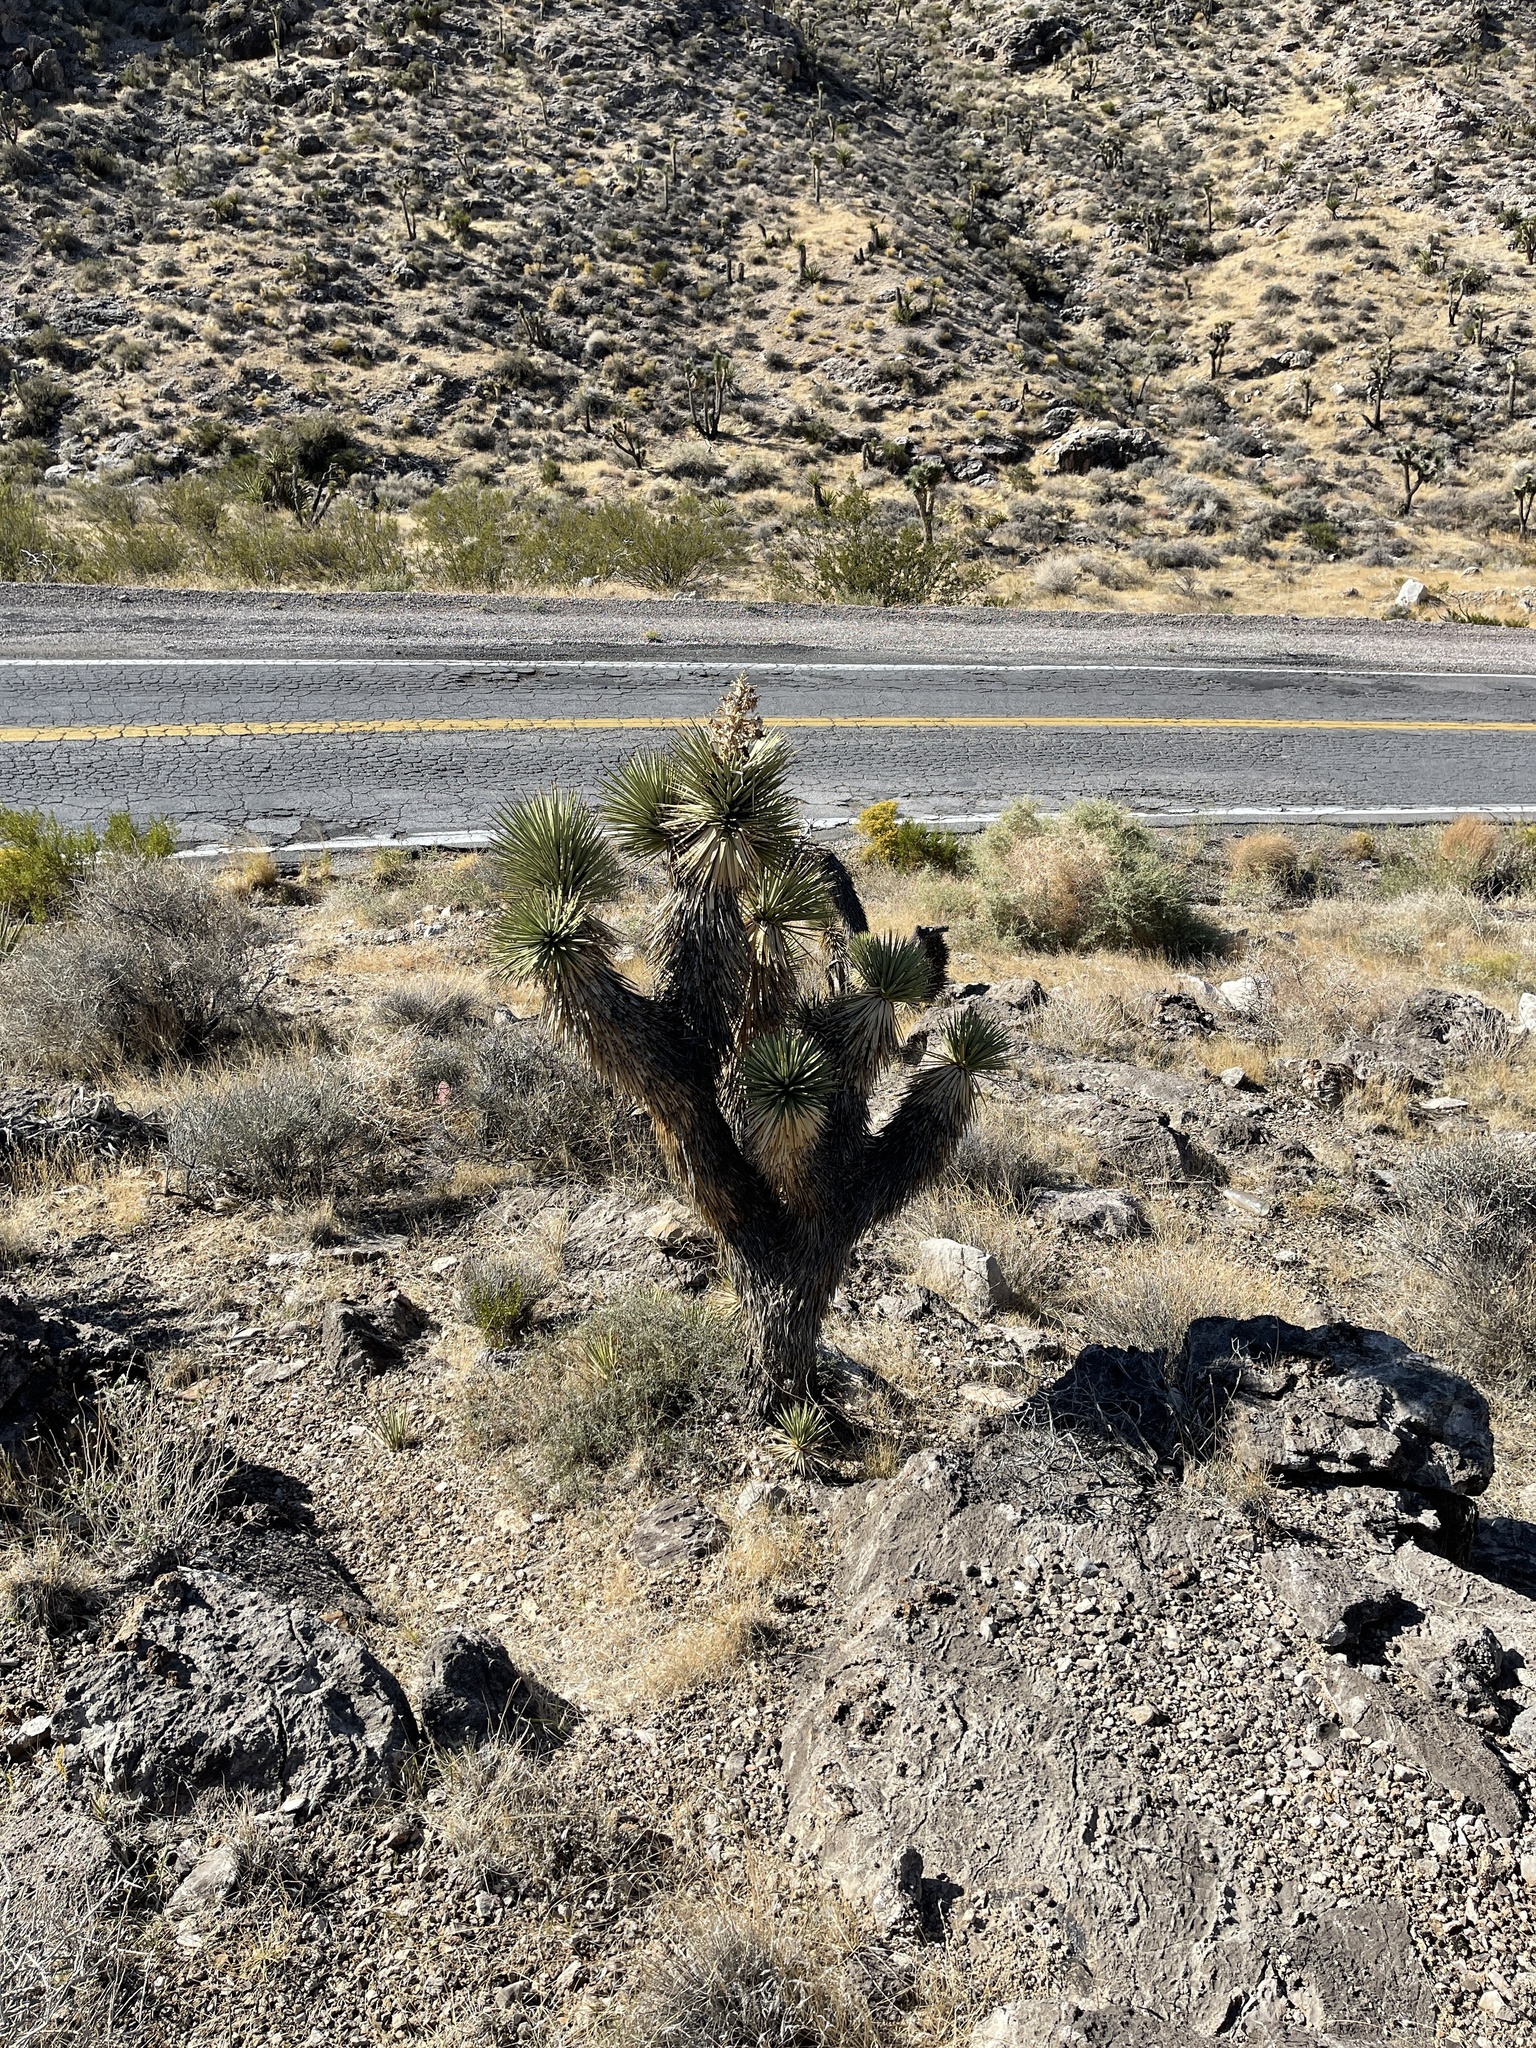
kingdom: Plantae
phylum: Tracheophyta
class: Liliopsida
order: Asparagales
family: Asparagaceae
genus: Yucca
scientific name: Yucca brevifolia
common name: Joshua tree
